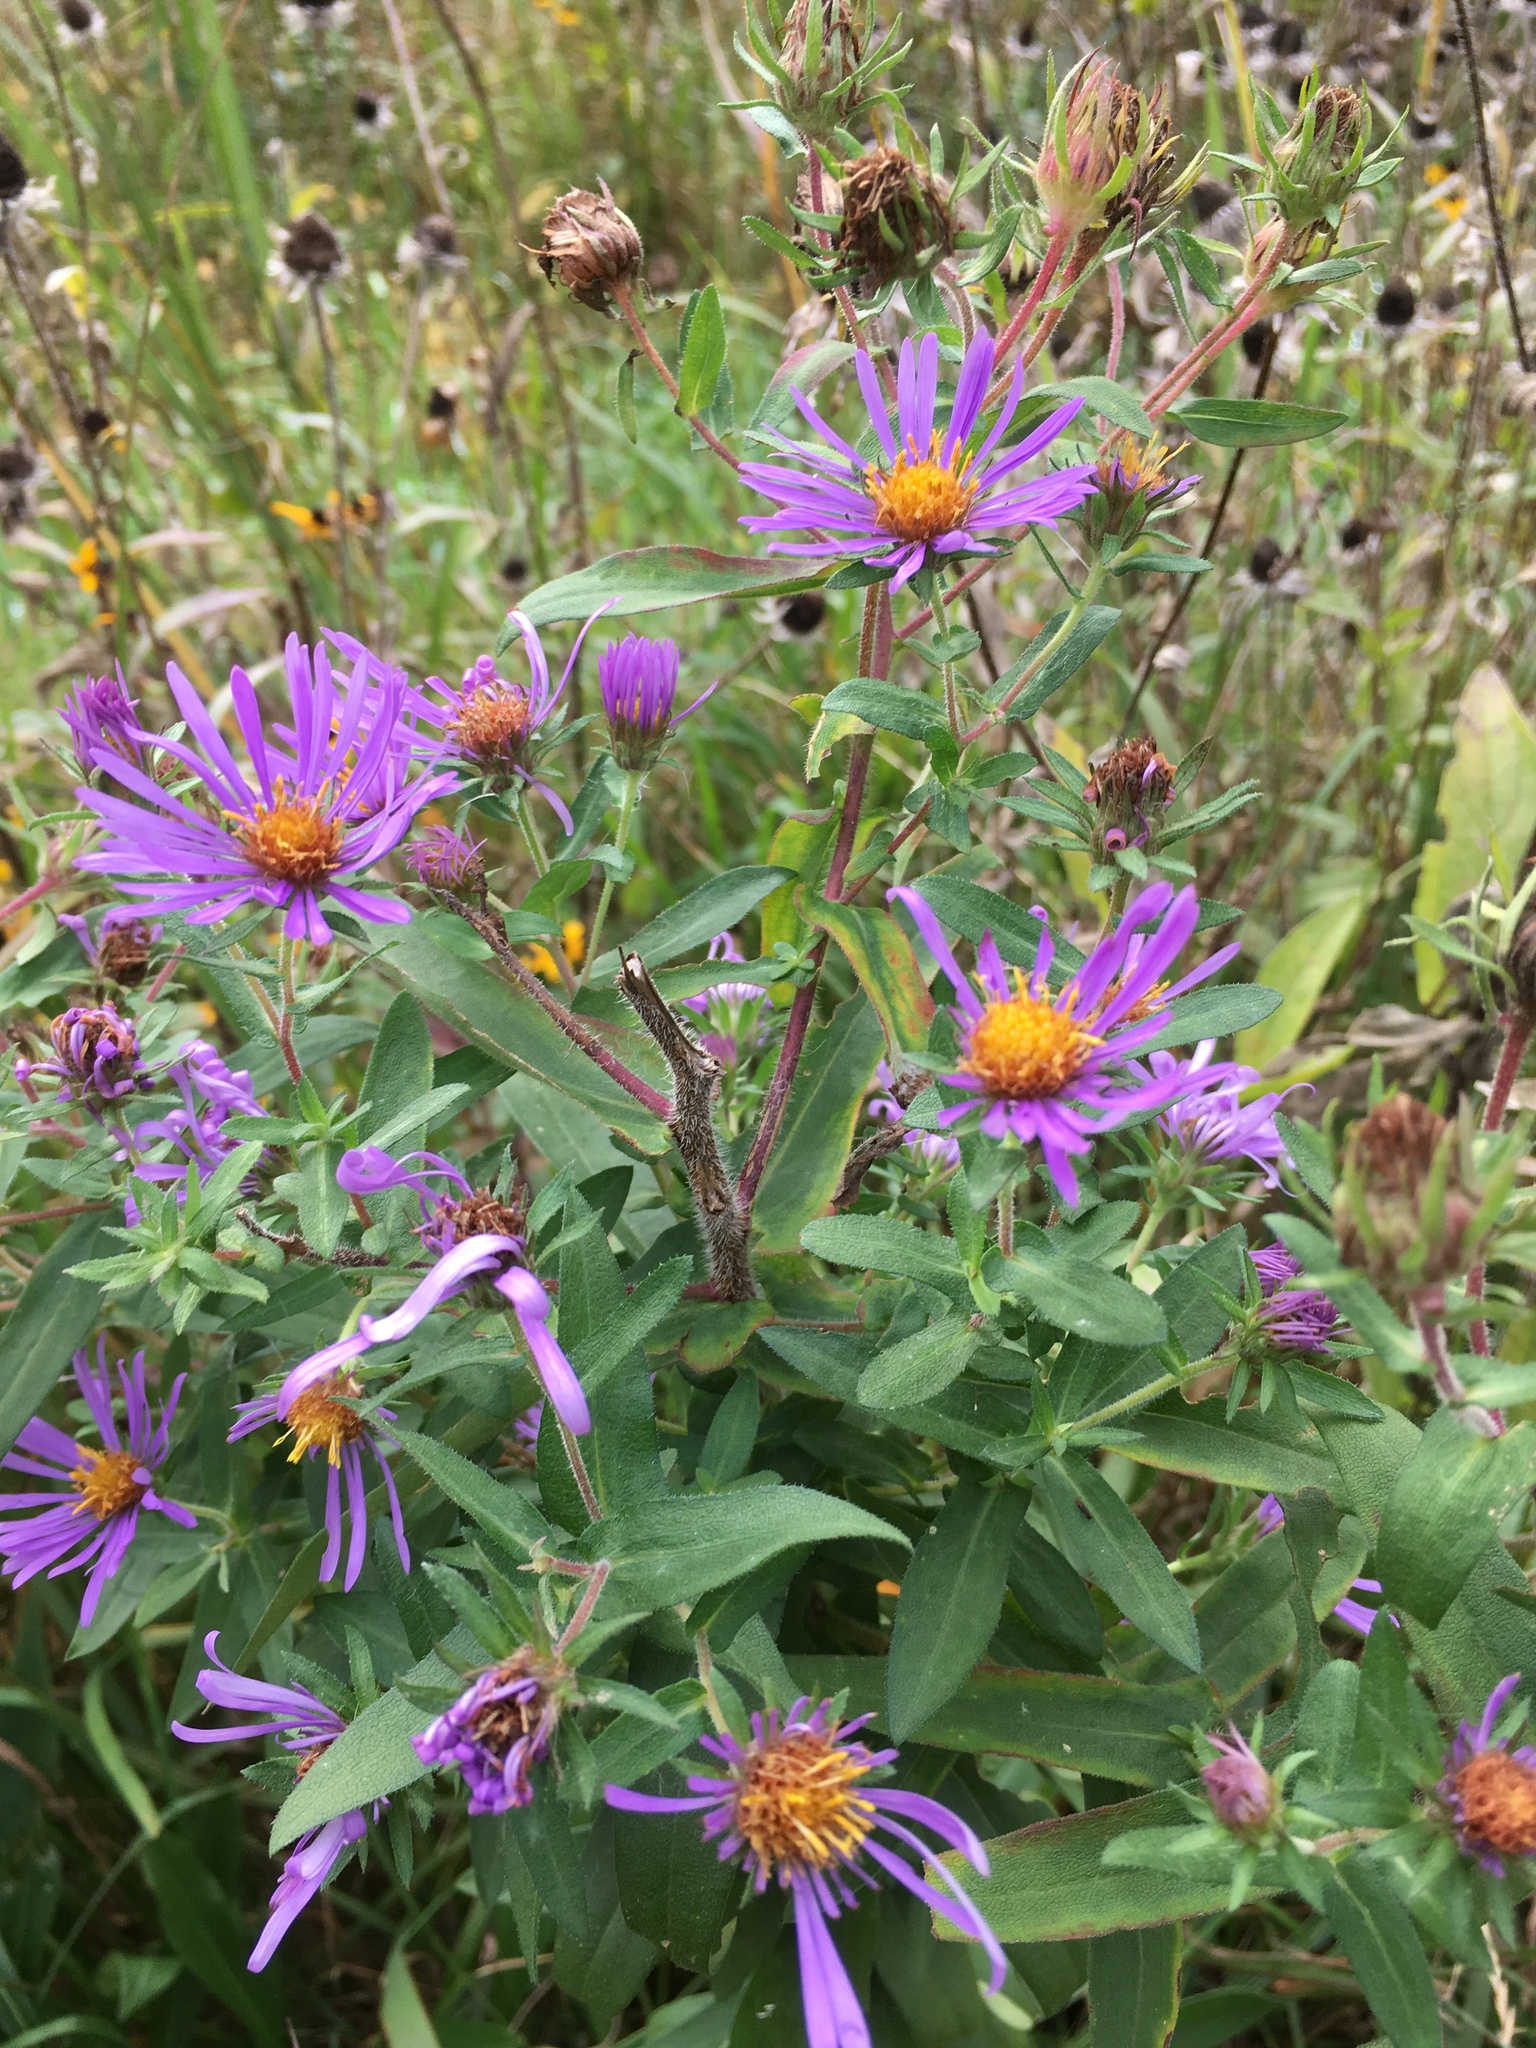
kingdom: Plantae
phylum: Tracheophyta
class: Magnoliopsida
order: Asterales
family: Asteraceae
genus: Symphyotrichum
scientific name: Symphyotrichum novae-angliae
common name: Michaelmas daisy
